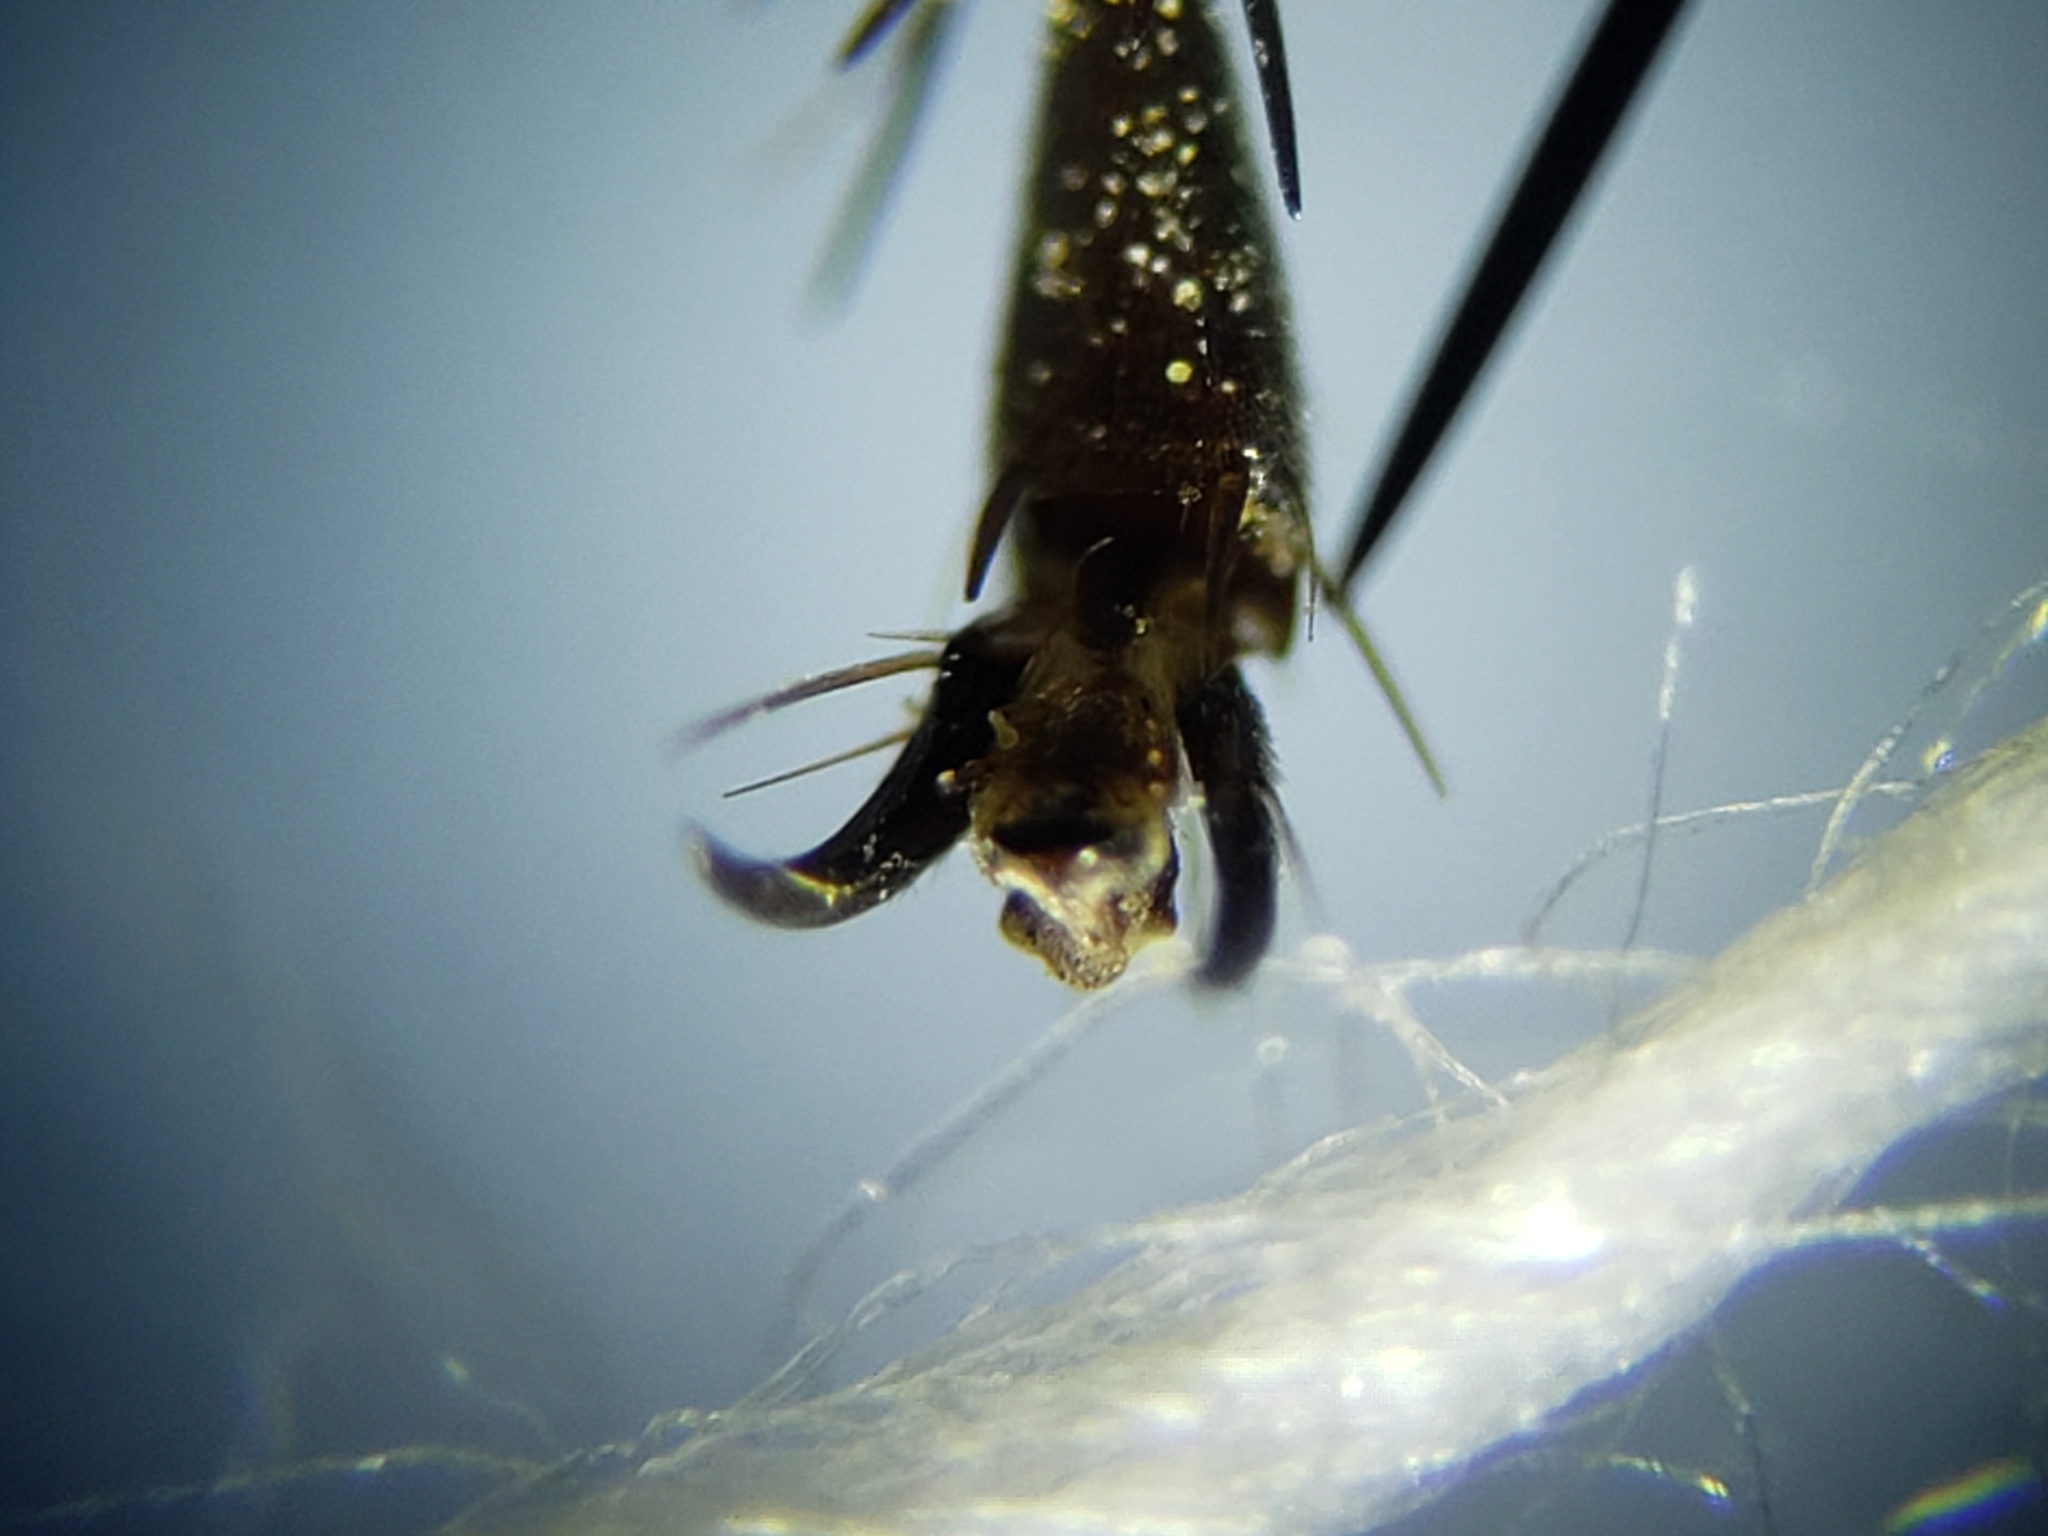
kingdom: Animalia
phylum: Arthropoda
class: Insecta
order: Hymenoptera
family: Sphecidae
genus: Eremnophila
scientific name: Eremnophila aureonotata
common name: Gold-marked thread-waisted wasp
